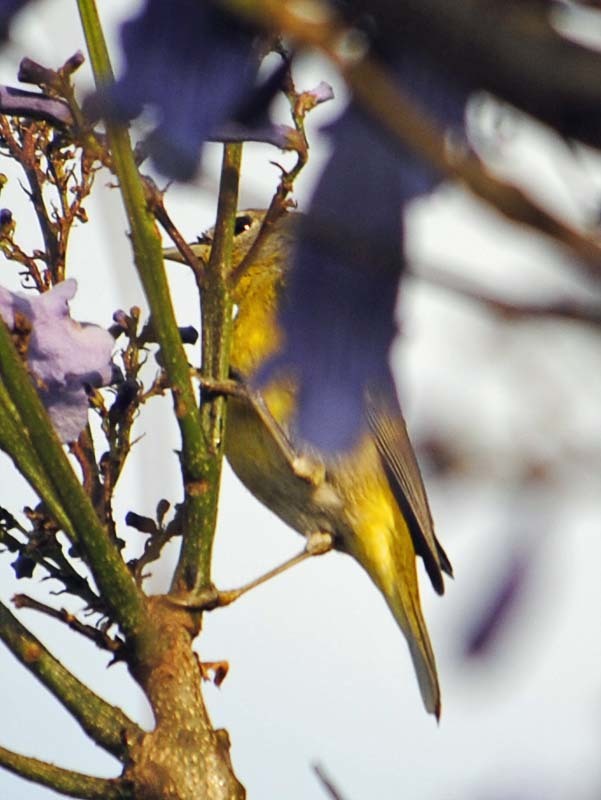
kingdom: Animalia
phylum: Chordata
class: Aves
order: Passeriformes
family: Parulidae
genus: Leiothlypis
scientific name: Leiothlypis ruficapilla
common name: Nashville warbler
